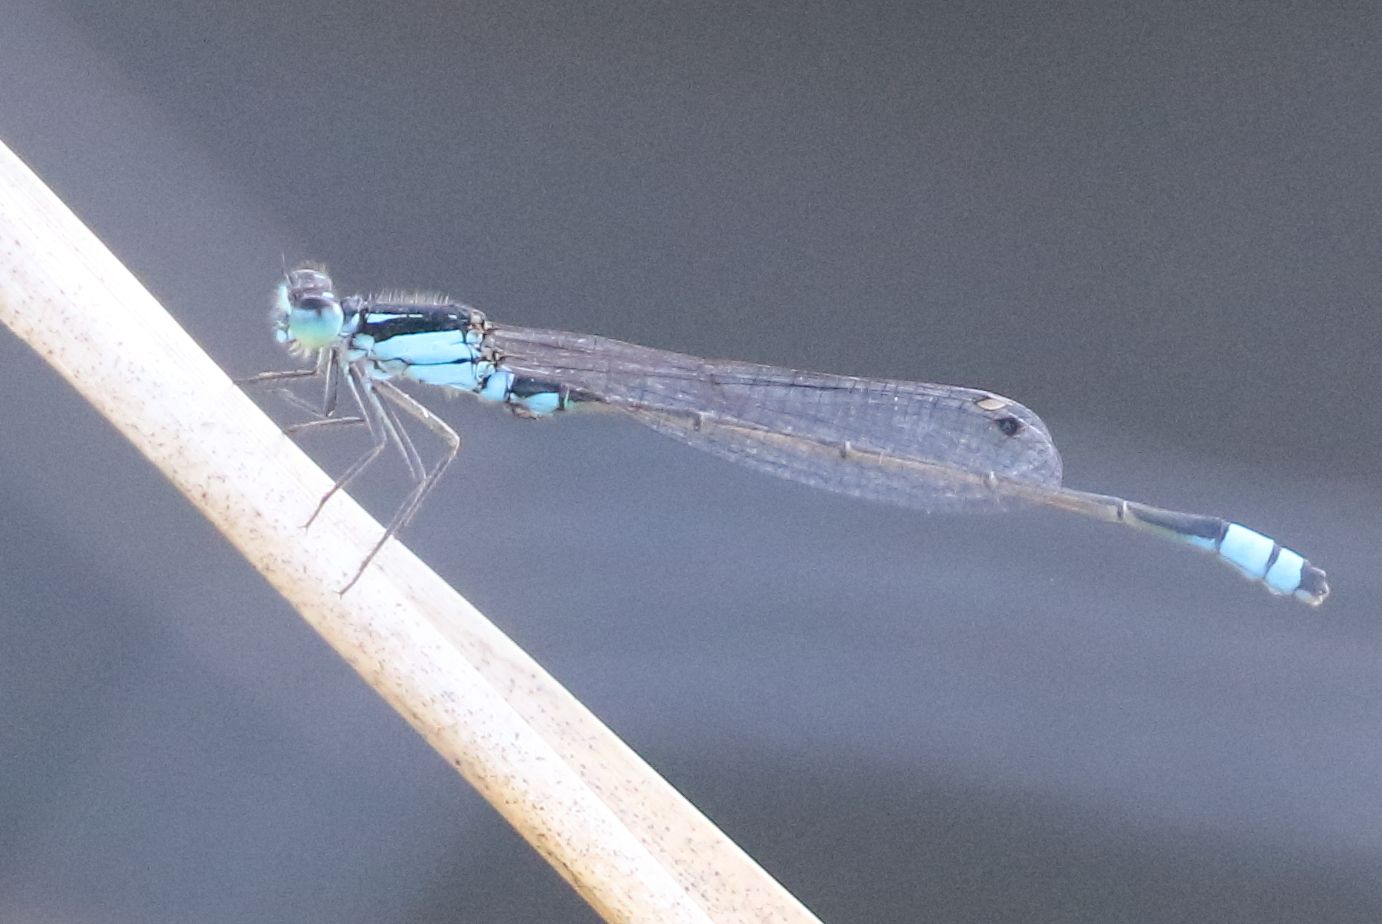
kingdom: Animalia
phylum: Arthropoda
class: Insecta
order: Odonata
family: Coenagrionidae
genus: Ischnura
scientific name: Ischnura heterosticta
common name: Common bluetail
